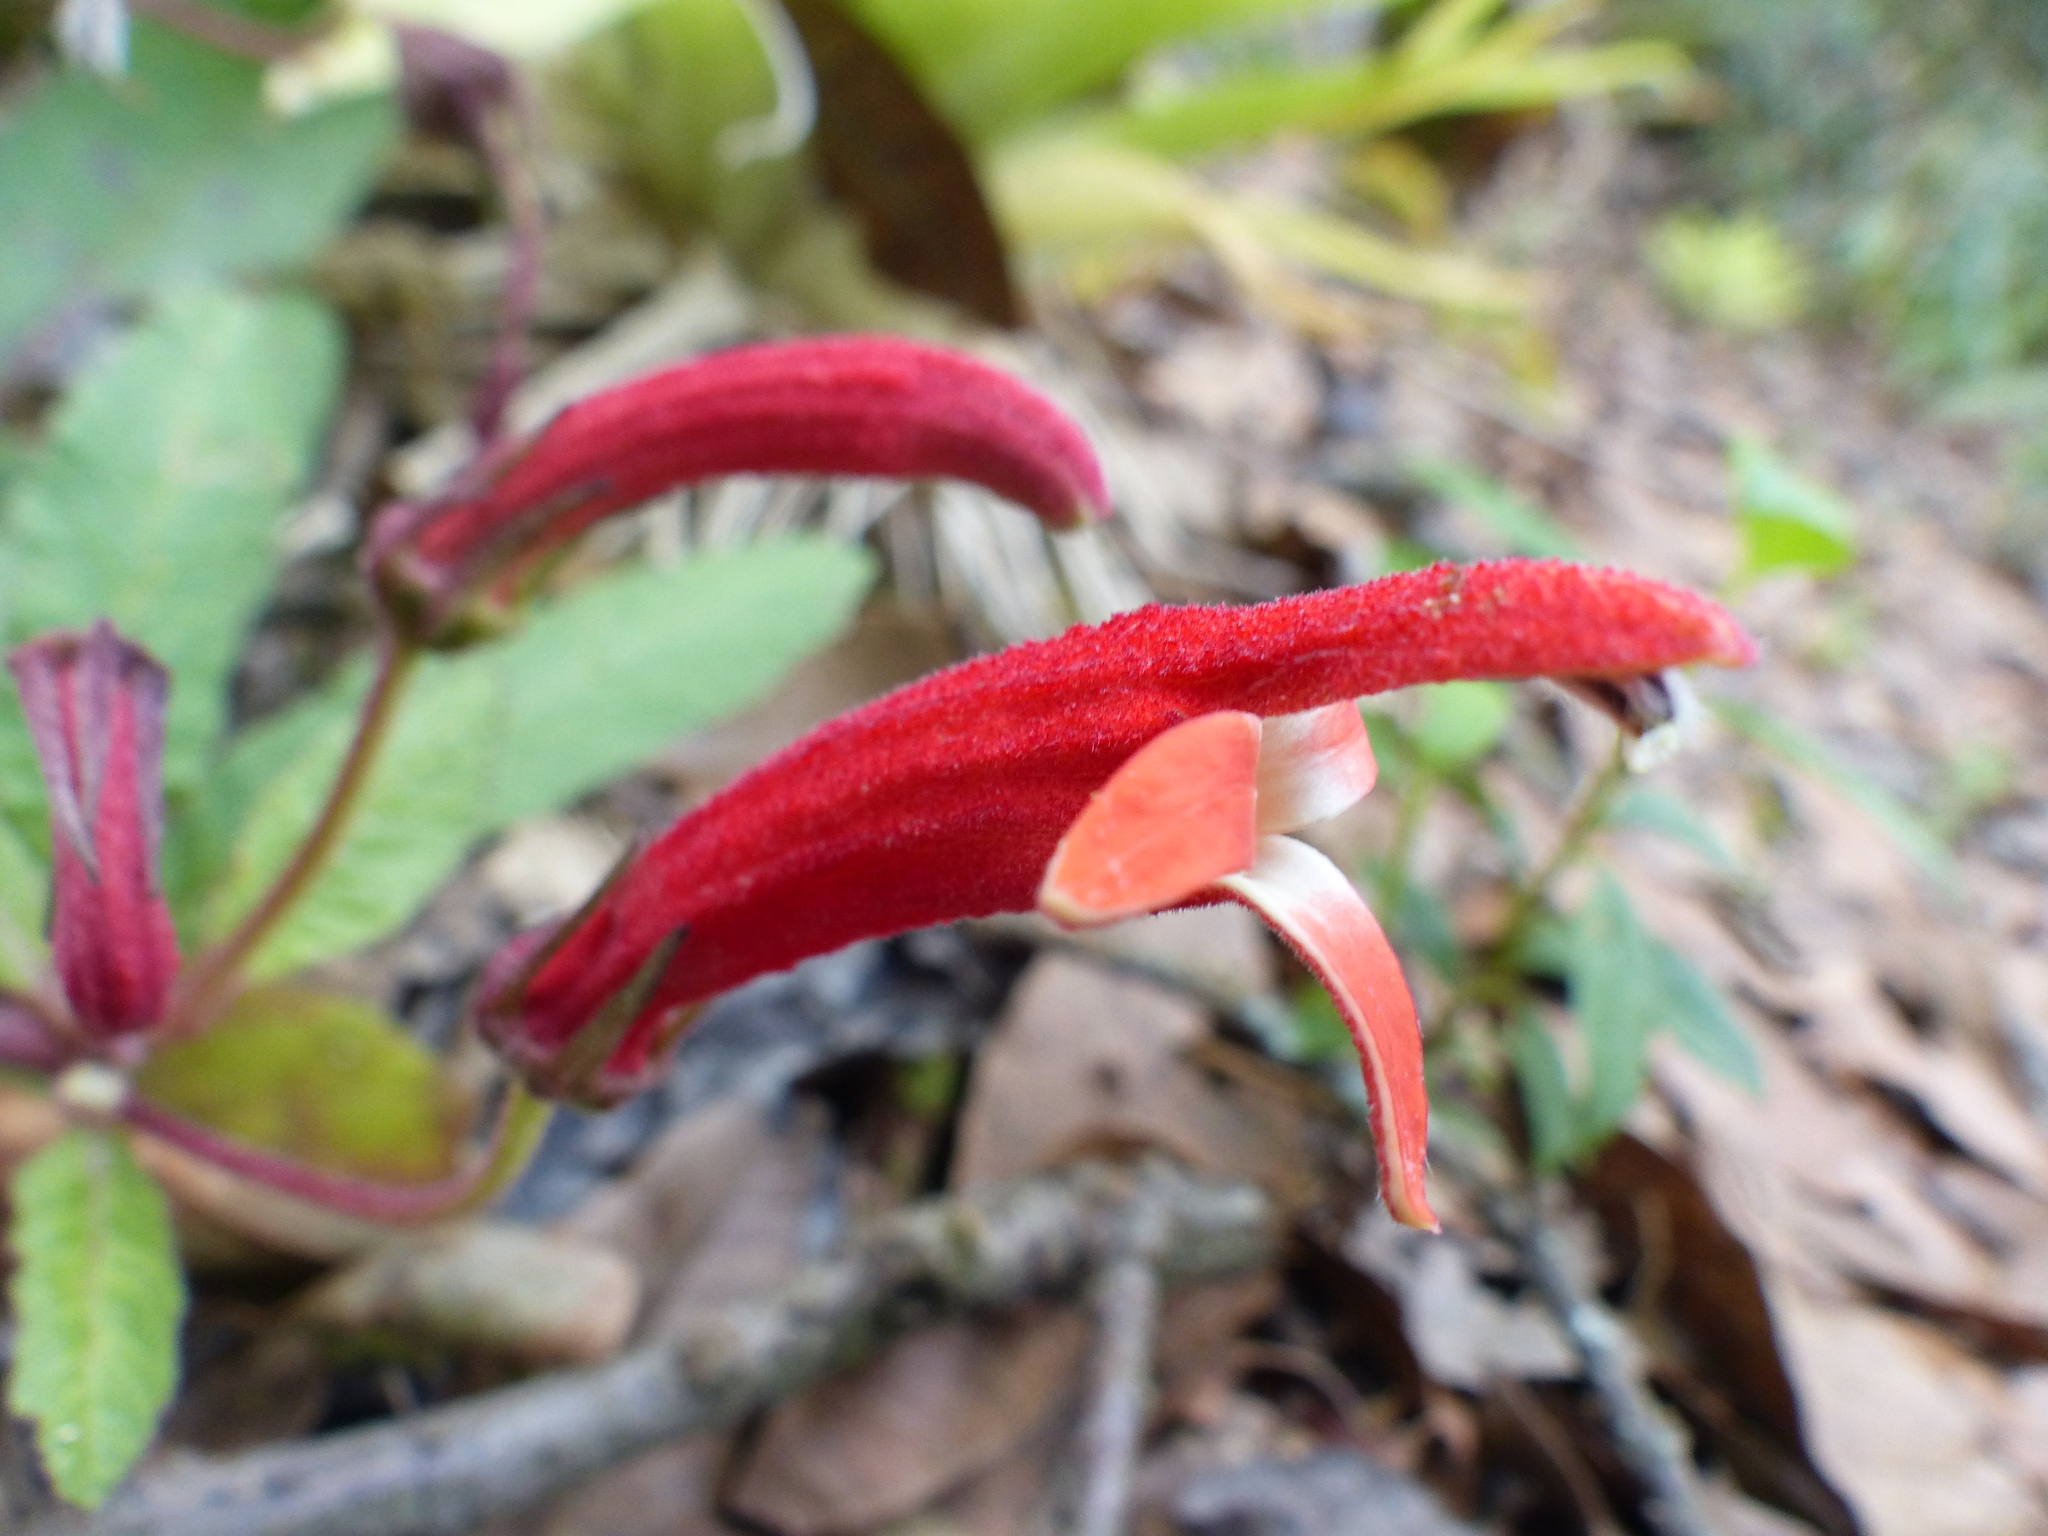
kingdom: Plantae
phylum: Tracheophyta
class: Magnoliopsida
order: Asterales
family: Campanulaceae
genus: Siphocampylus
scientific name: Siphocampylus lasiandrus
